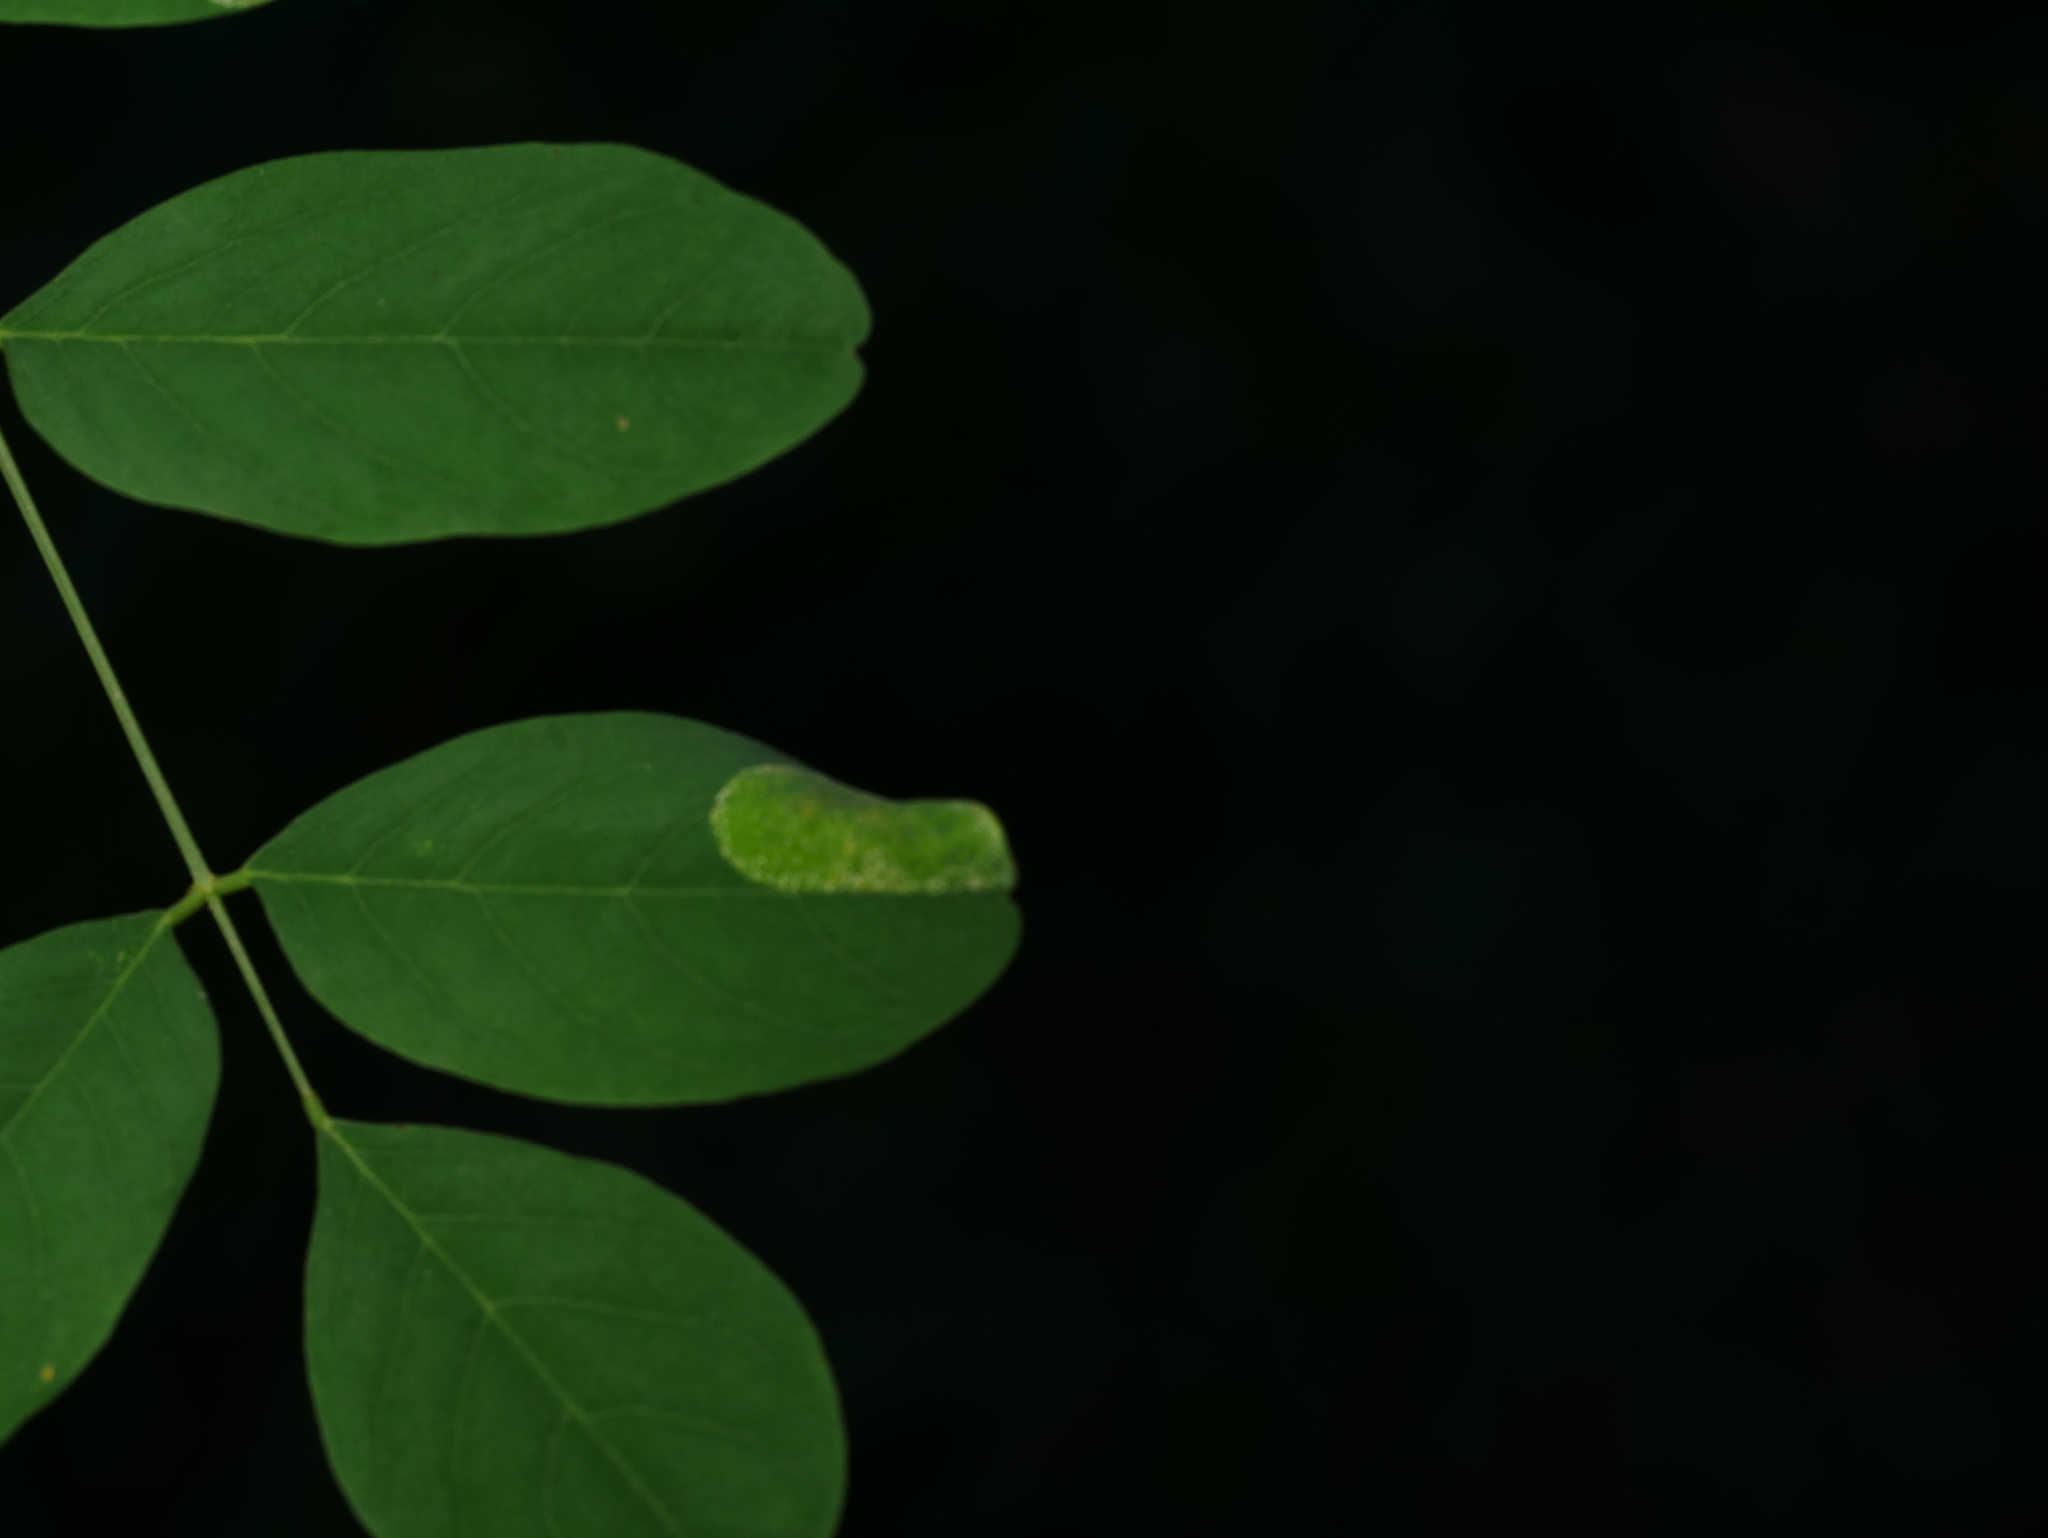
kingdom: Animalia
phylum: Arthropoda
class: Insecta
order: Lepidoptera
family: Gracillariidae
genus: Macrosaccus
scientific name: Macrosaccus robiniella
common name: Leaf blotch miner moth
